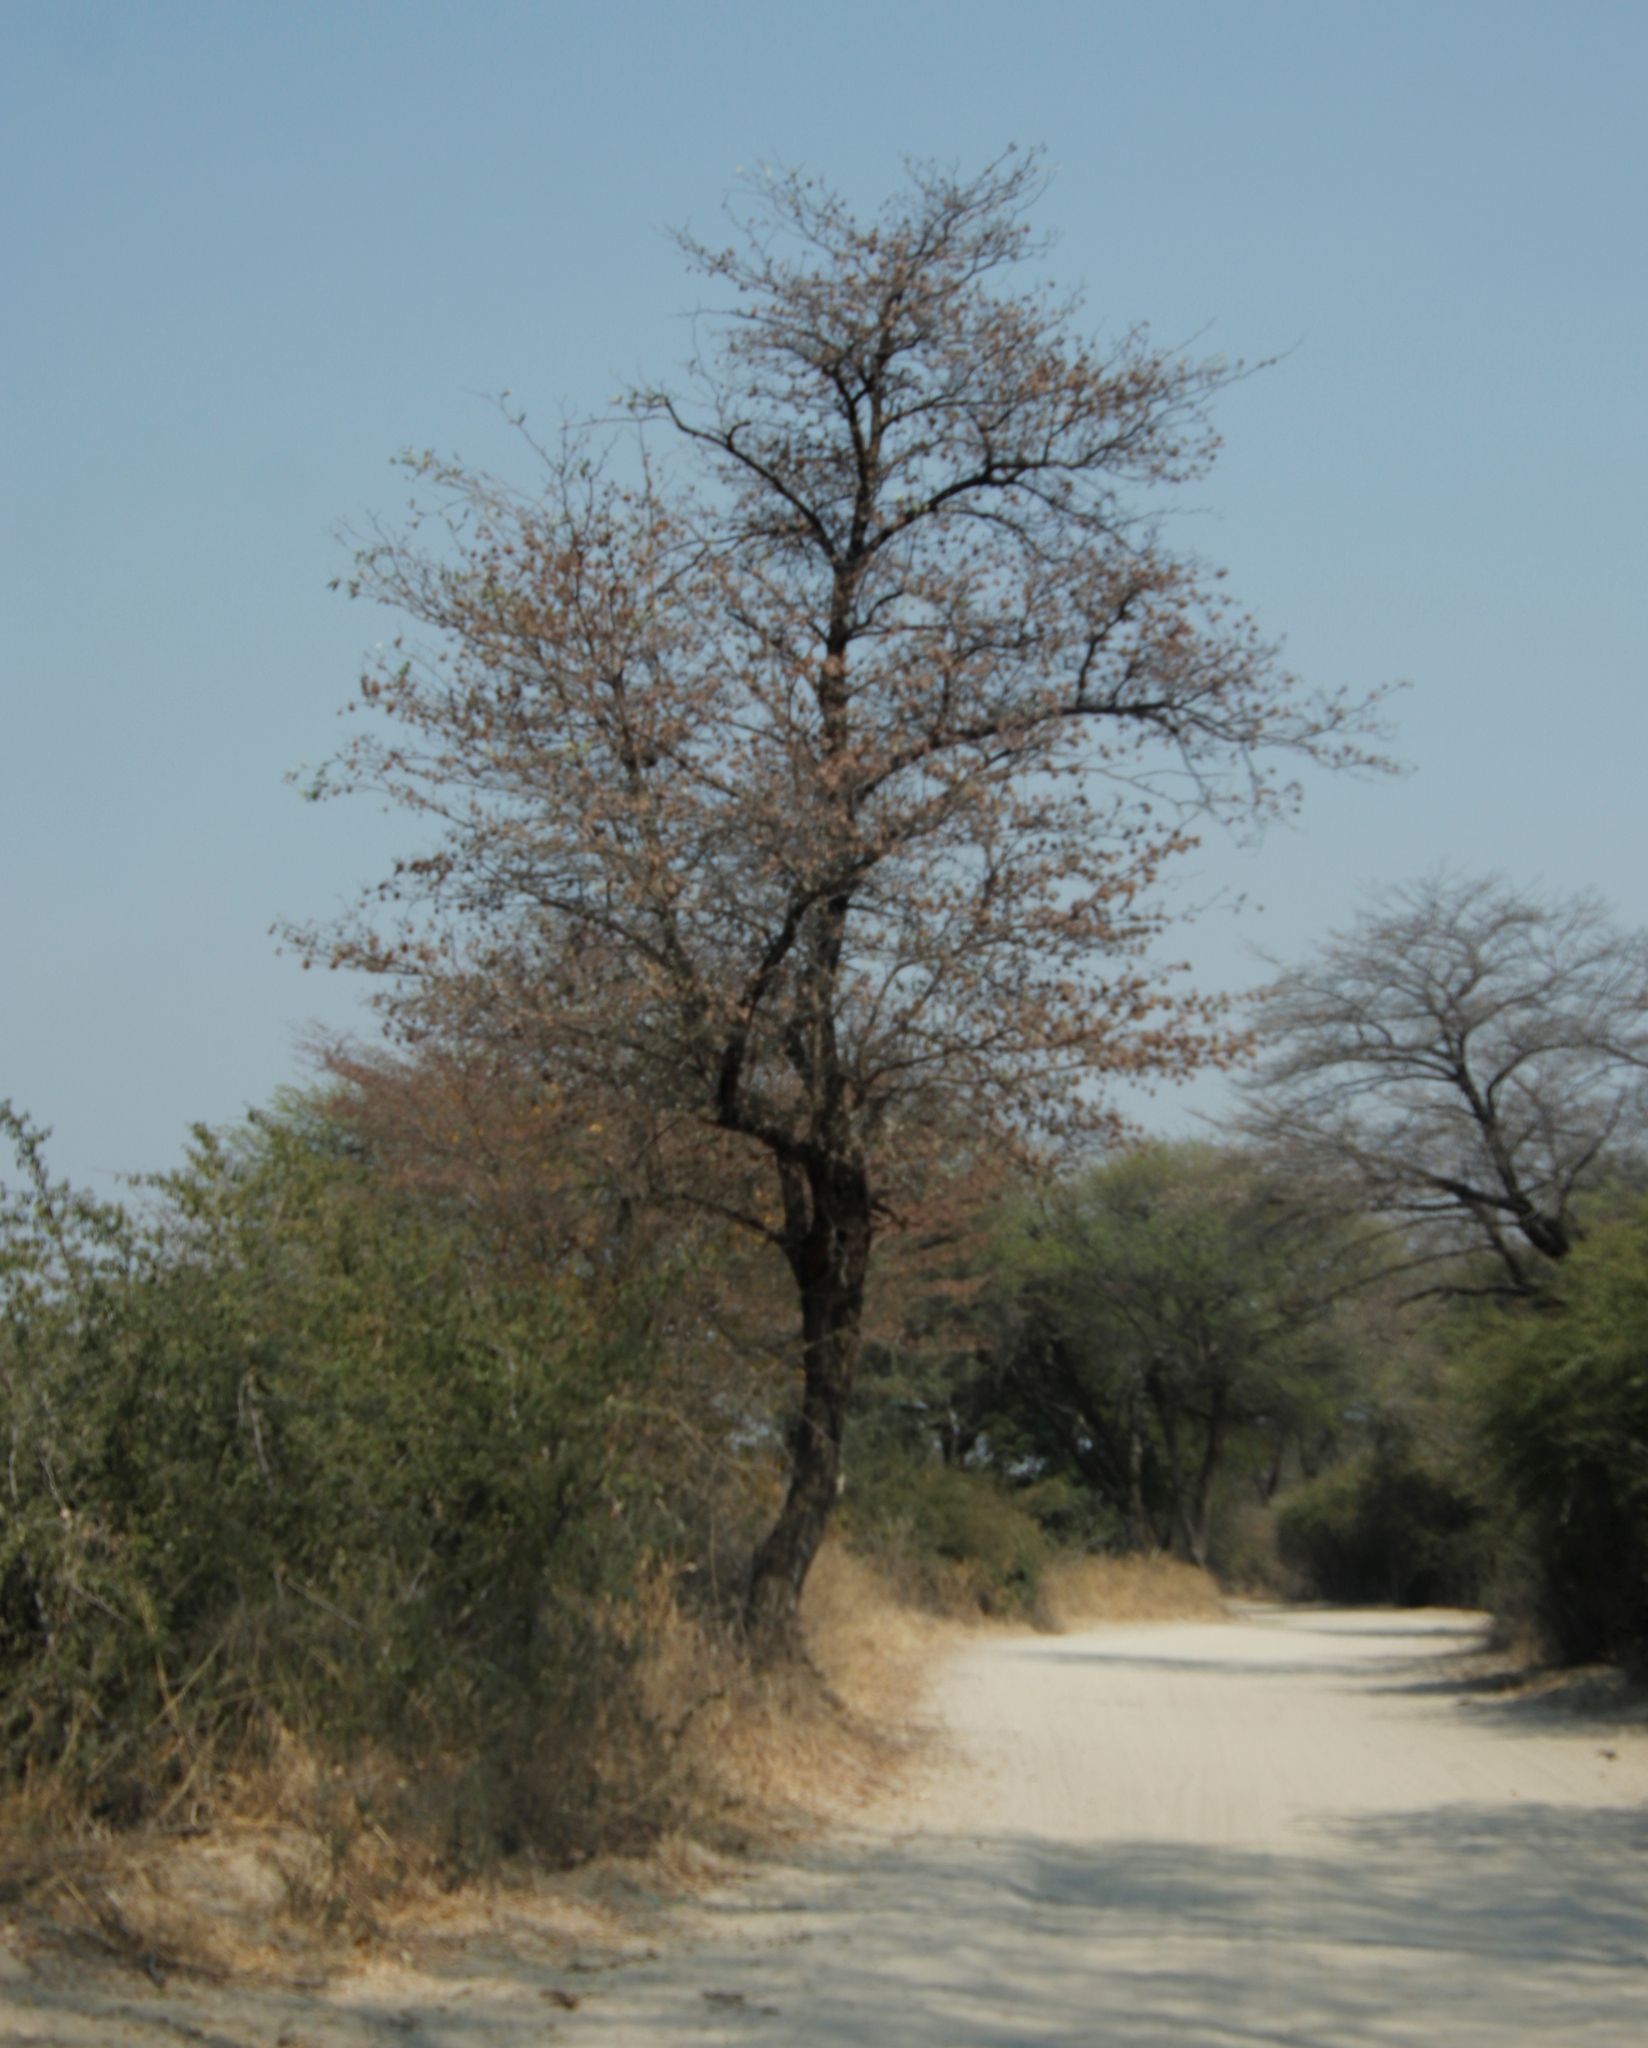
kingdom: Plantae
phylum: Tracheophyta
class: Magnoliopsida
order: Myrtales
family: Combretaceae
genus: Terminalia
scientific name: Terminalia sericea
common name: Clusterleaf
